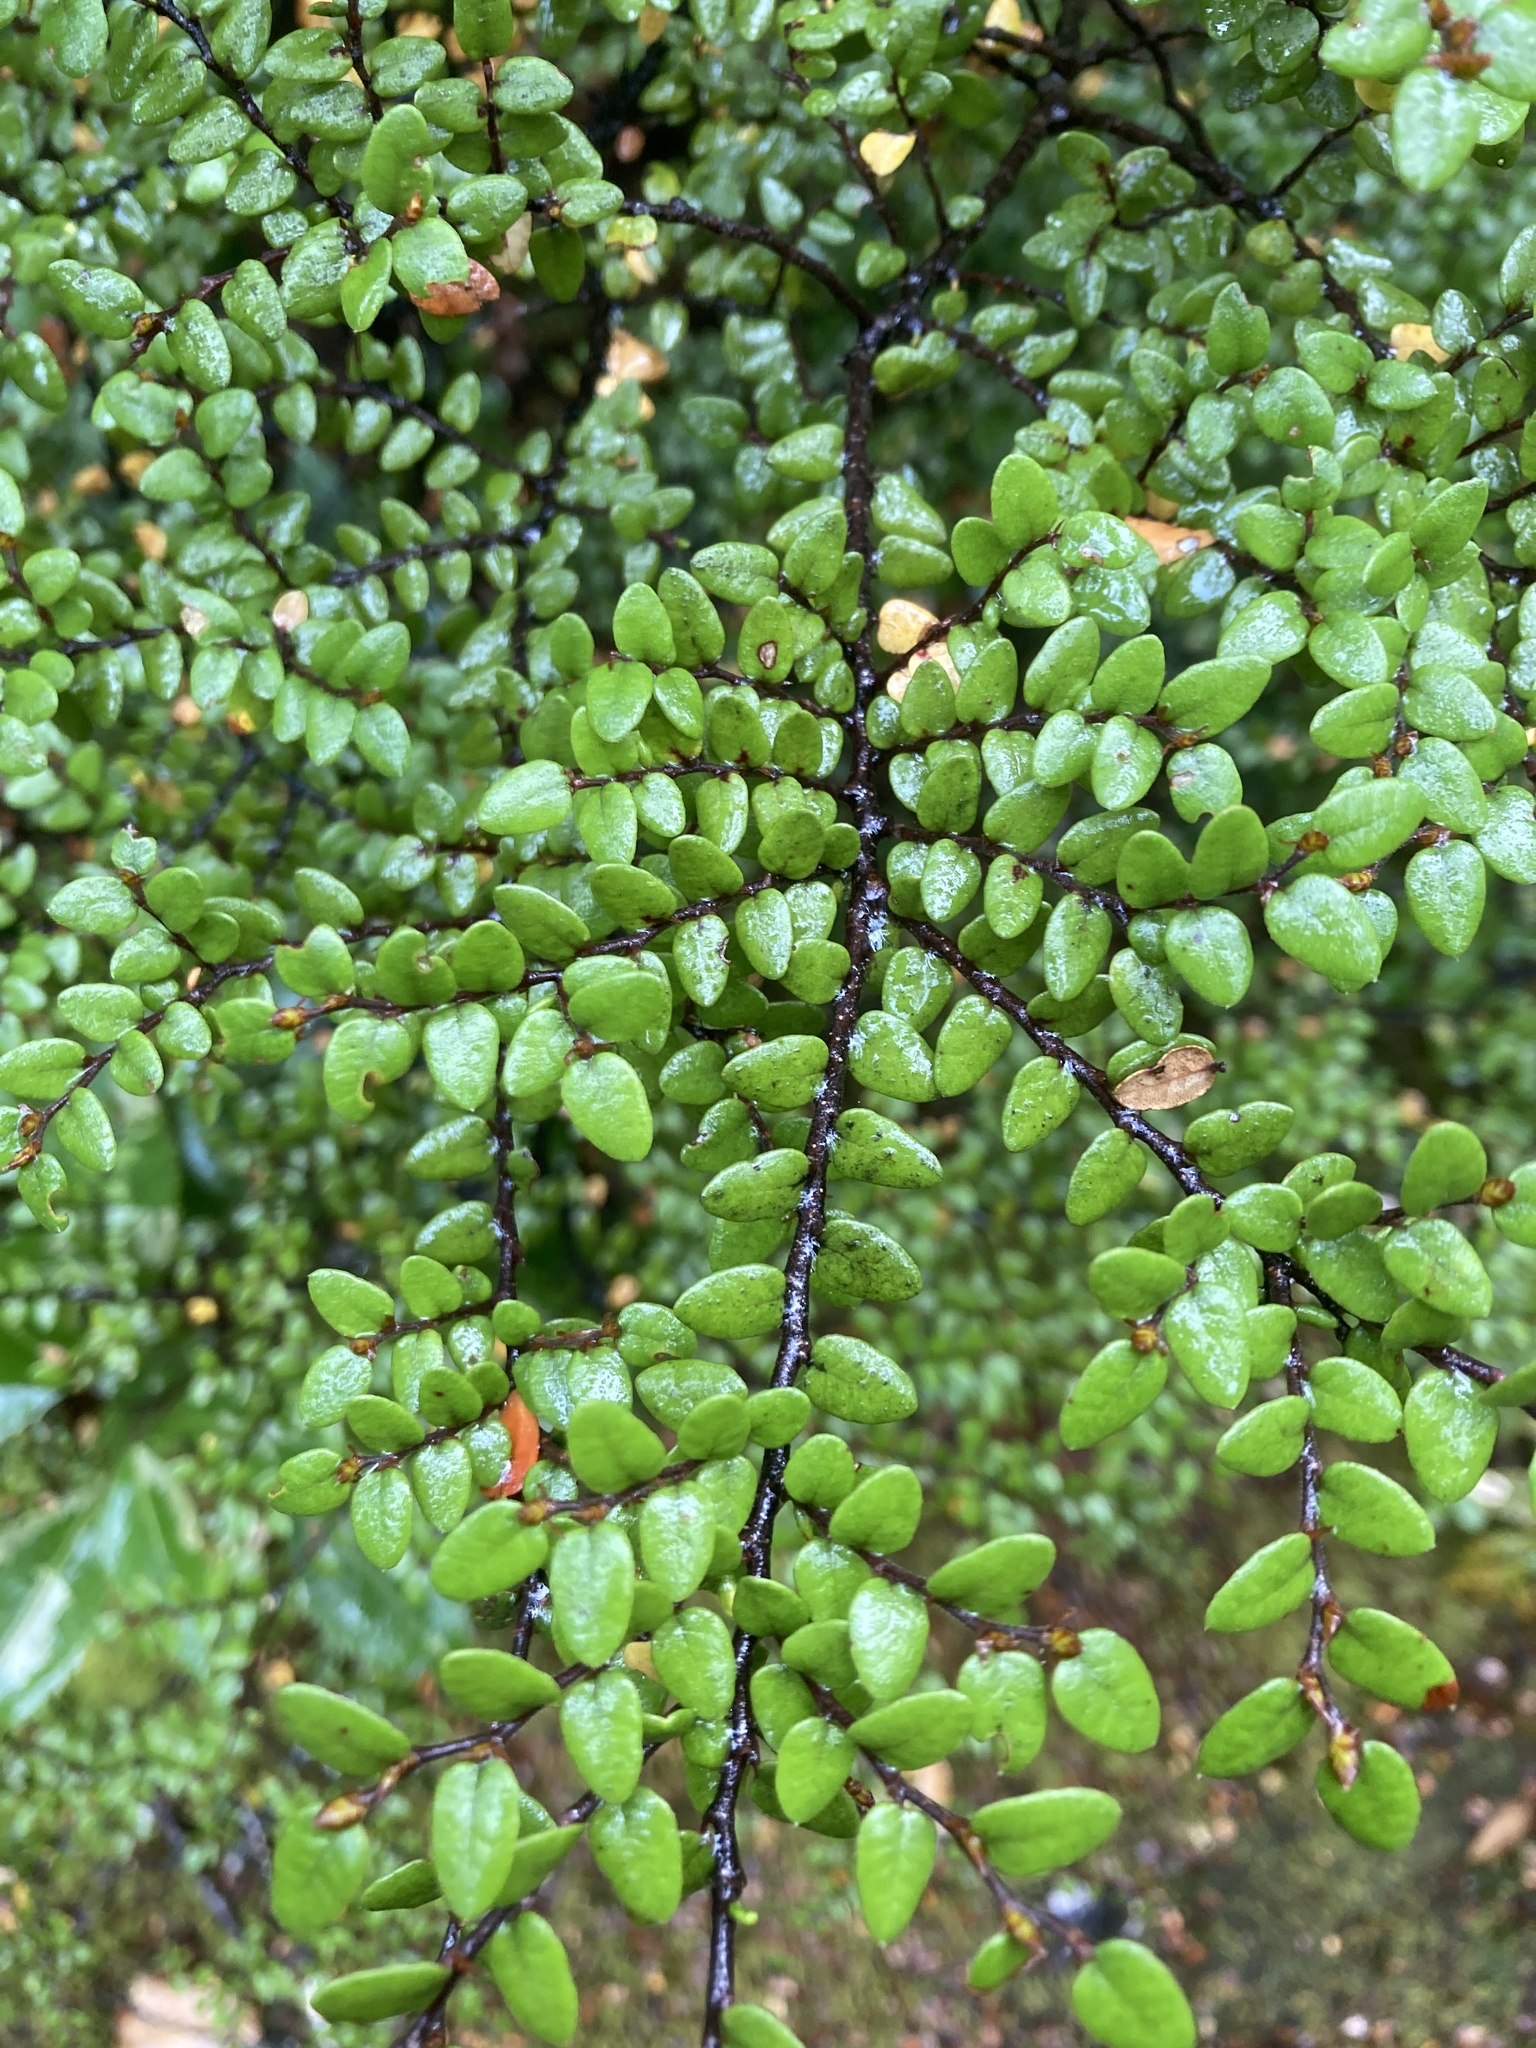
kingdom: Plantae
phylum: Tracheophyta
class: Magnoliopsida
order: Fagales
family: Nothofagaceae
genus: Nothofagus
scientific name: Nothofagus cliffortioides
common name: Mountain beech
